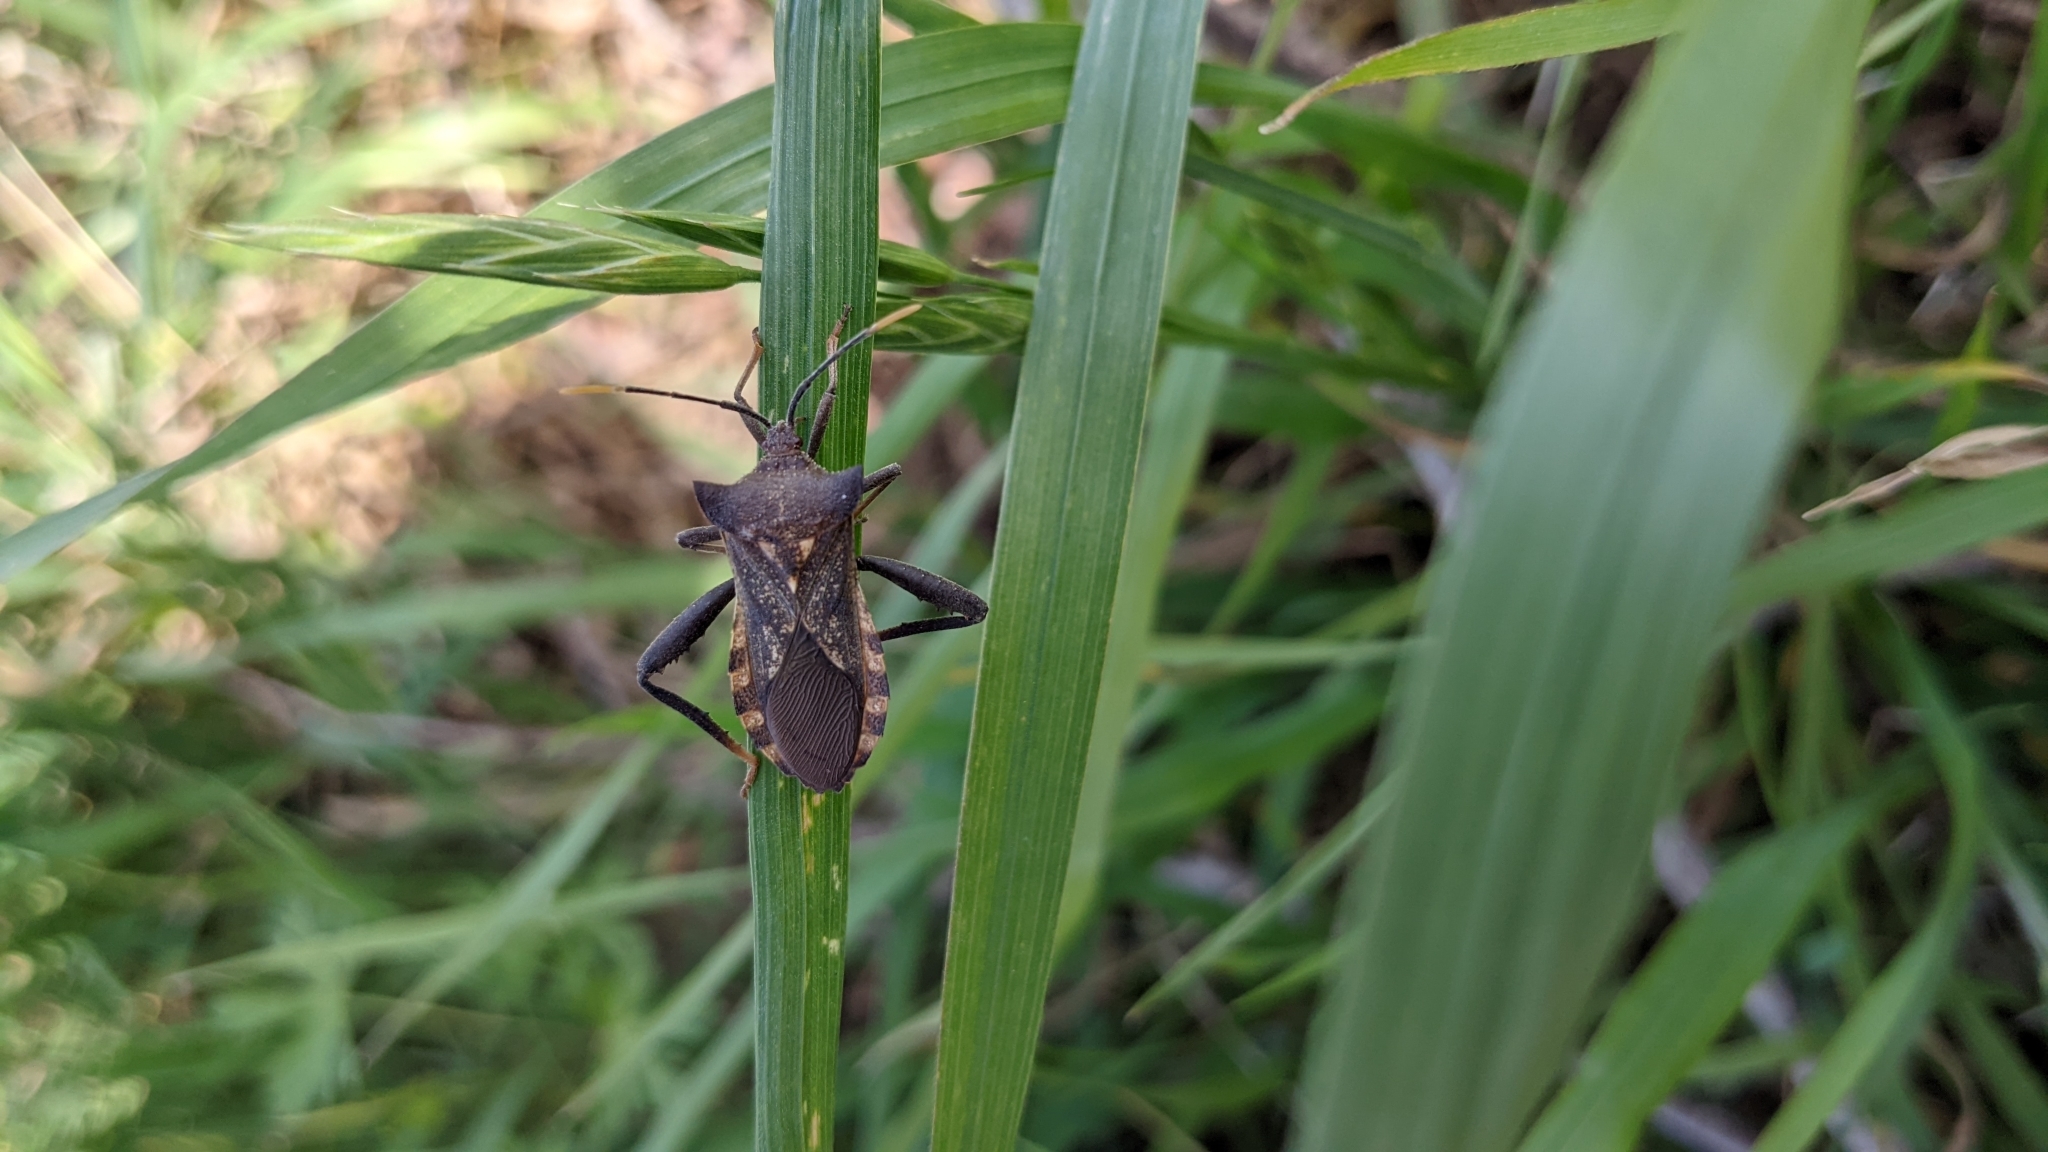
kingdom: Animalia
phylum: Arthropoda
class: Insecta
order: Hemiptera
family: Coreidae
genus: Mozena
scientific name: Mozena lunata
